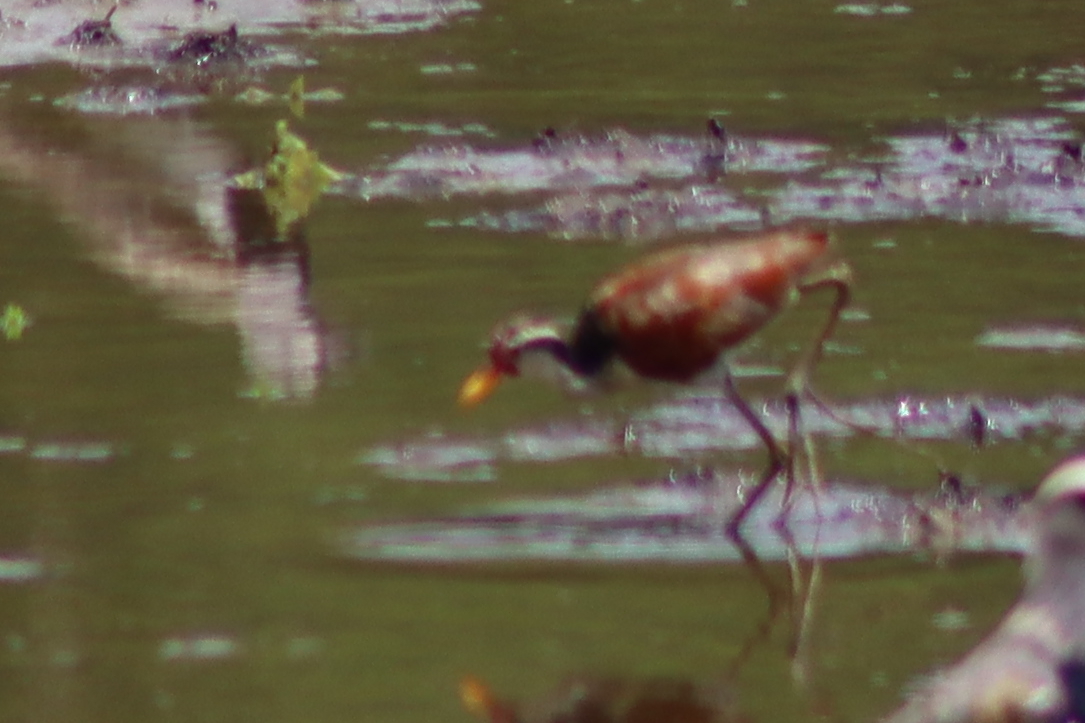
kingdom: Animalia
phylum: Chordata
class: Aves
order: Charadriiformes
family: Jacanidae
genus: Jacana
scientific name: Jacana jacana
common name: Wattled jacana
